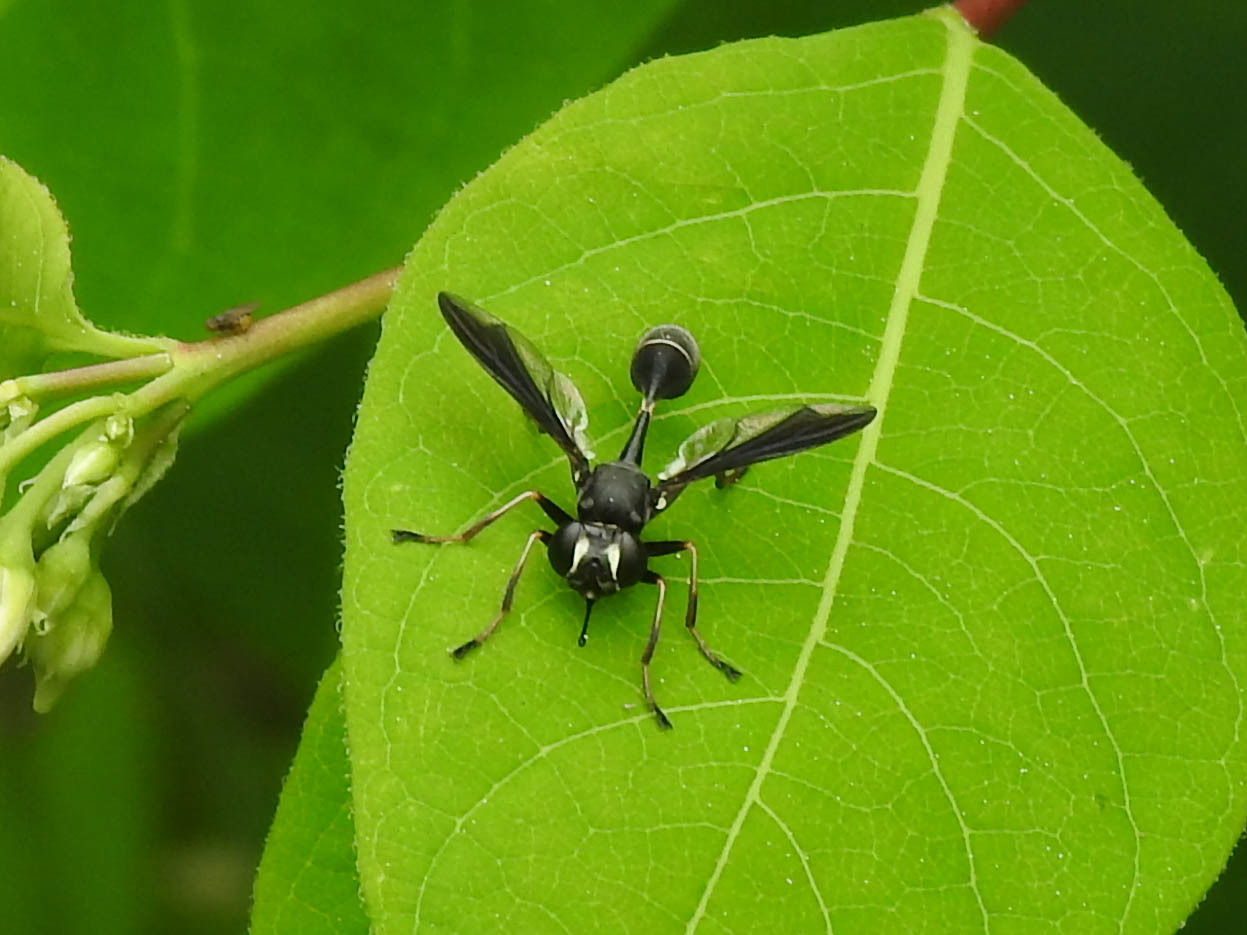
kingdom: Animalia
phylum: Arthropoda
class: Insecta
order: Diptera
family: Conopidae
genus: Physocephala
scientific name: Physocephala tibialis
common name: Common eastern physocephala
